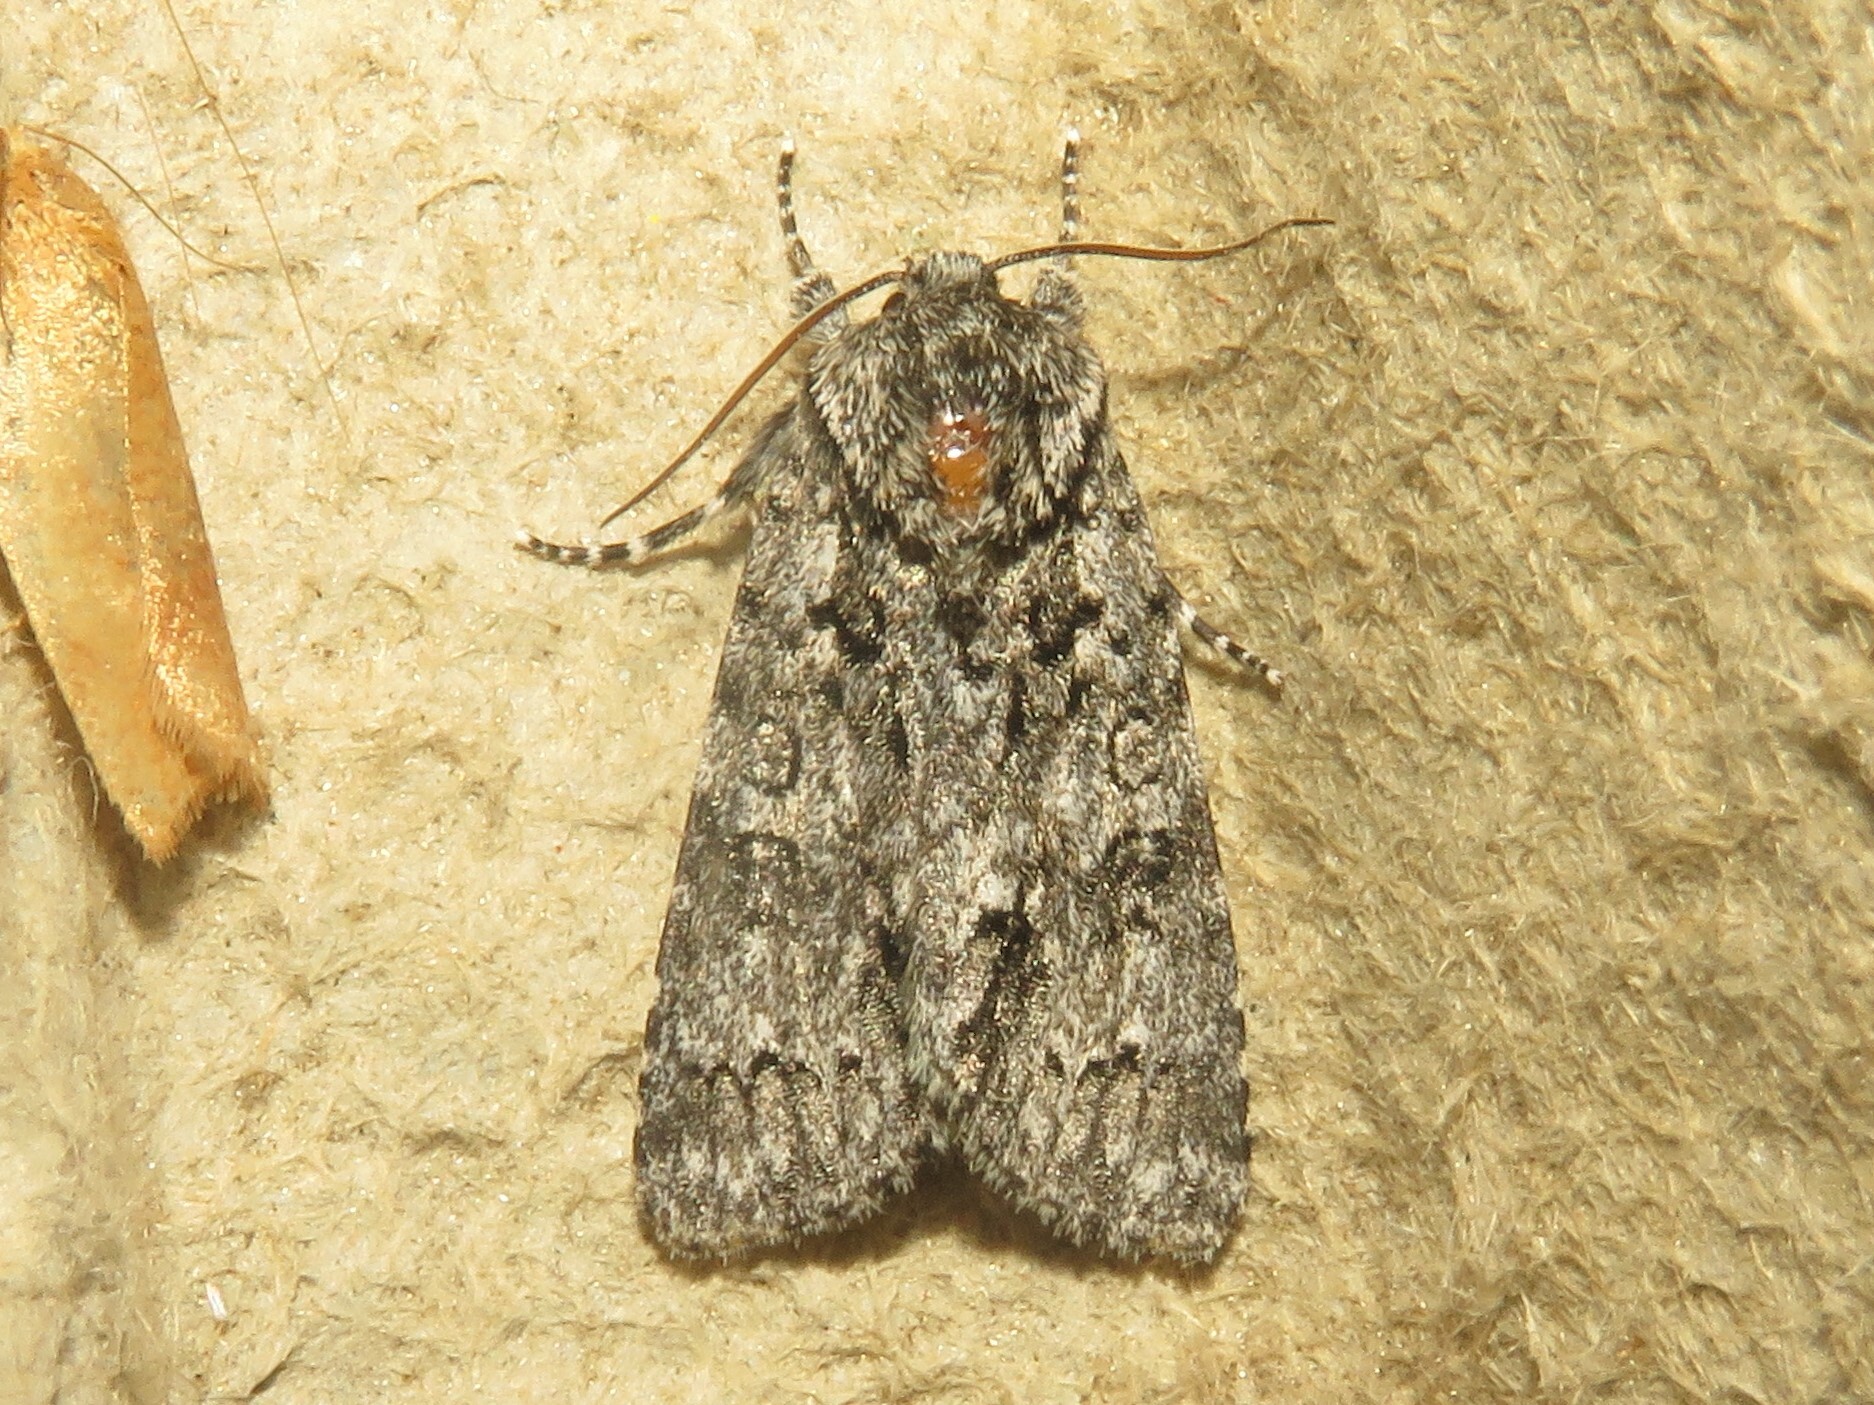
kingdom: Animalia
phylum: Arthropoda
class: Insecta
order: Lepidoptera
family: Noctuidae
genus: Acronicta
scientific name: Acronicta impressa
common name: Impressed dagger
